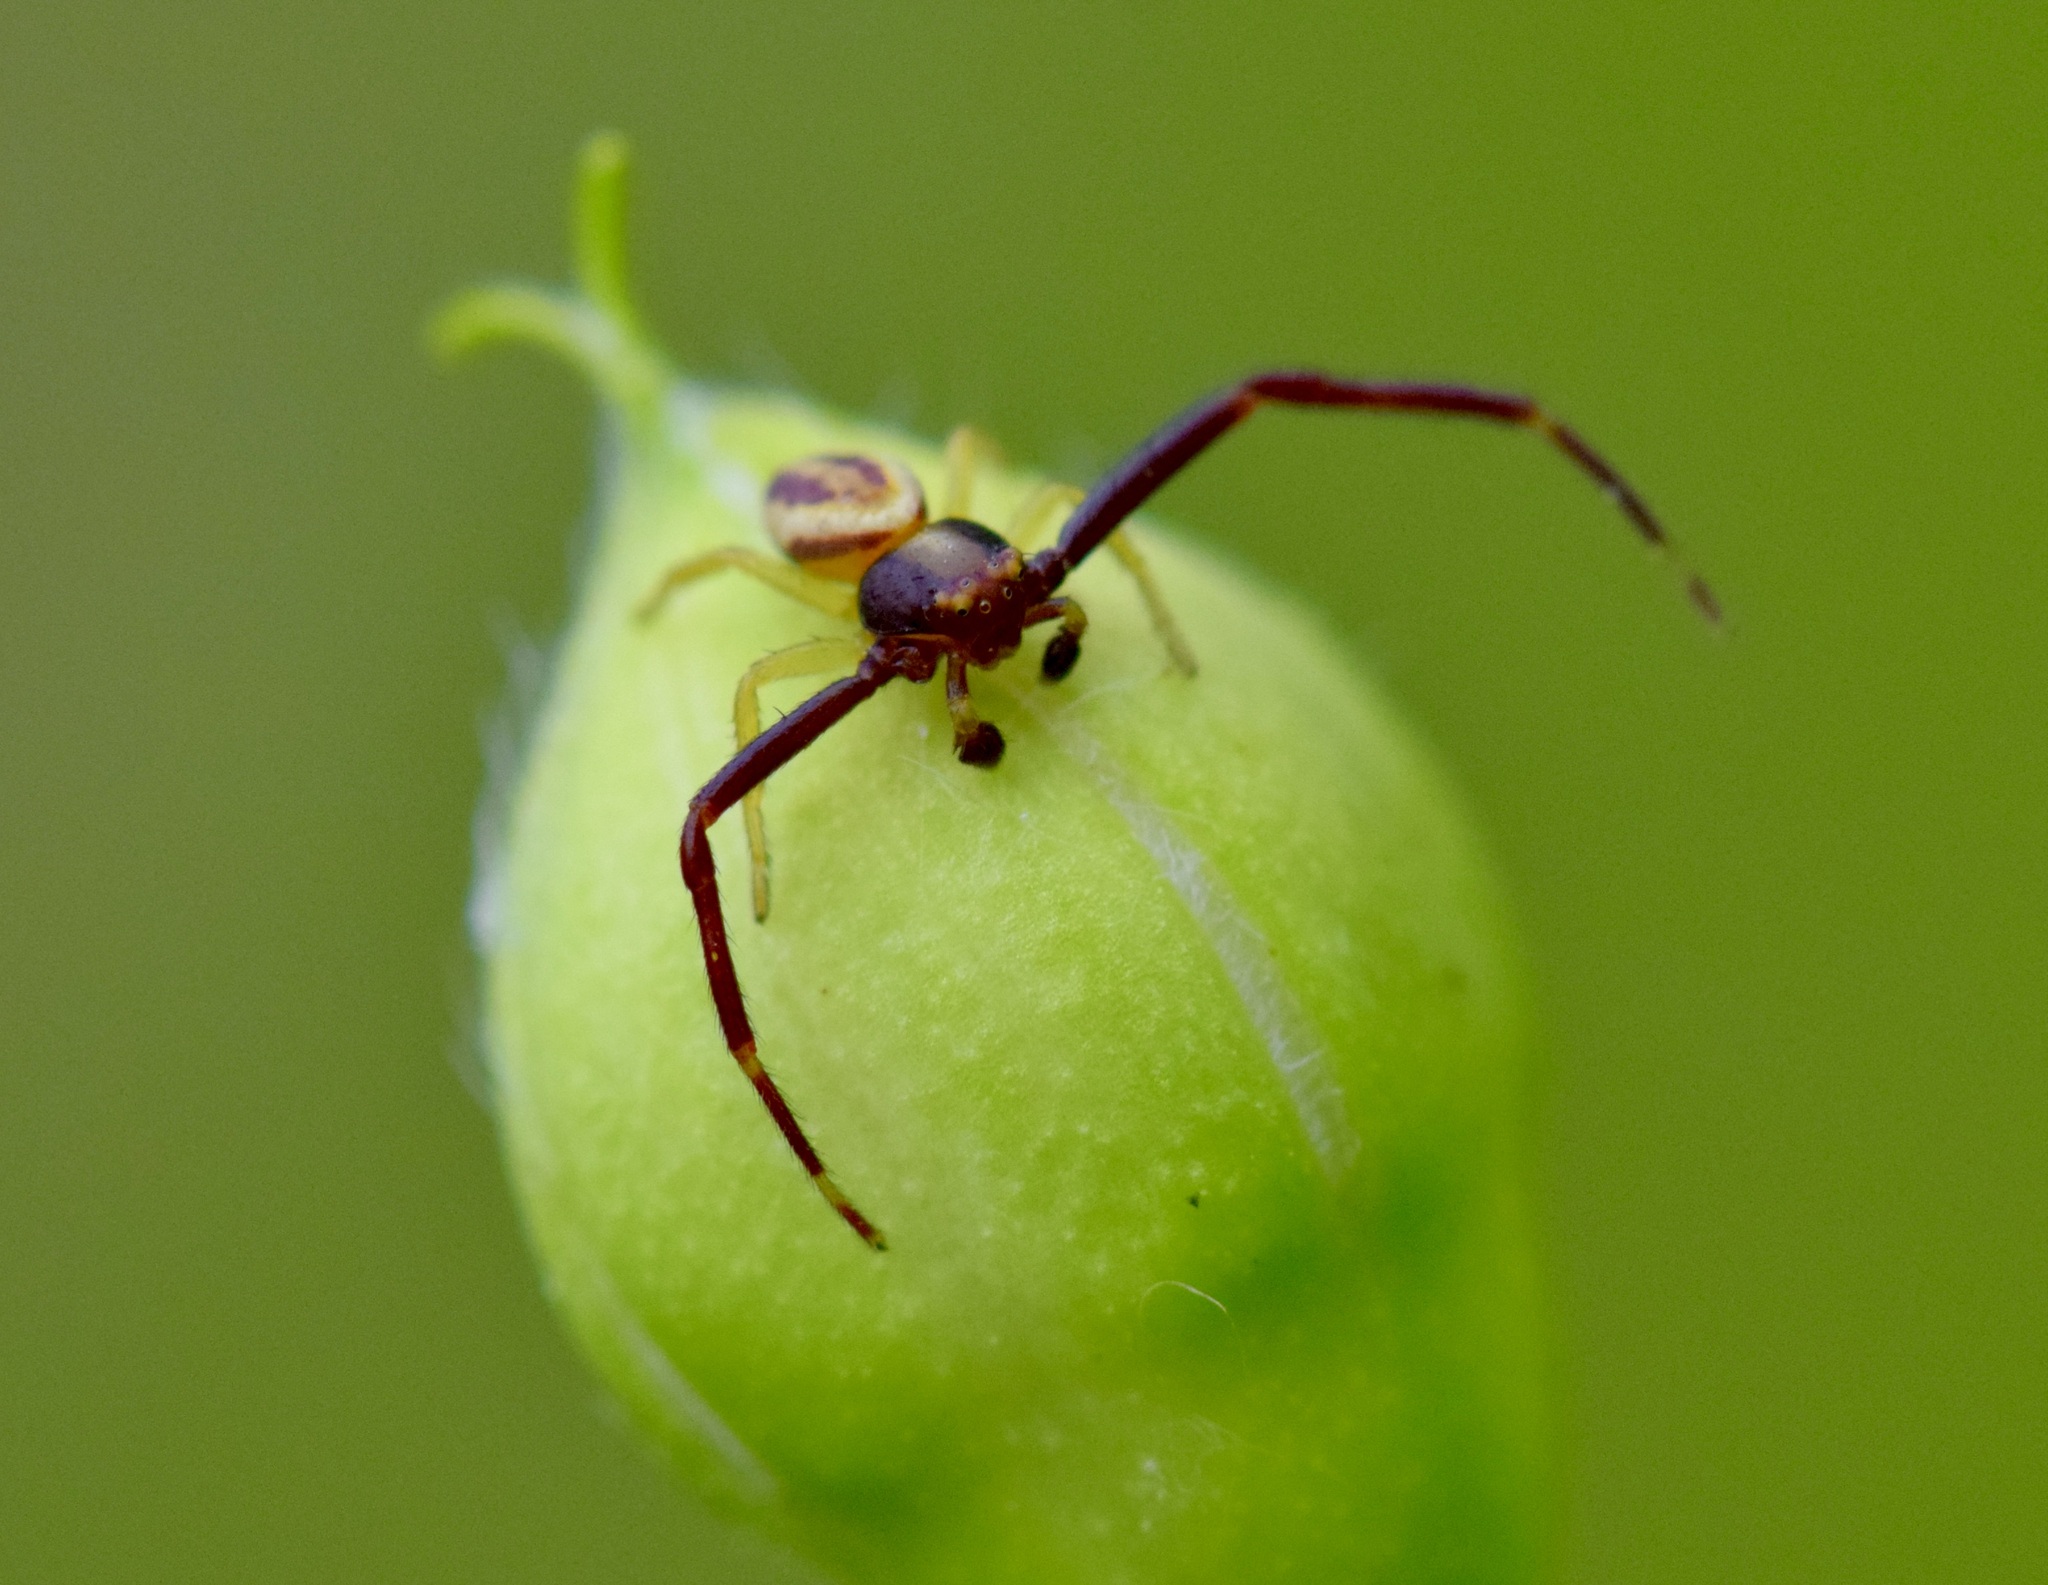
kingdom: Animalia
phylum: Arthropoda
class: Arachnida
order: Araneae
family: Thomisidae
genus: Misumena
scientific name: Misumena vatia
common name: Goldenrod crab spider
